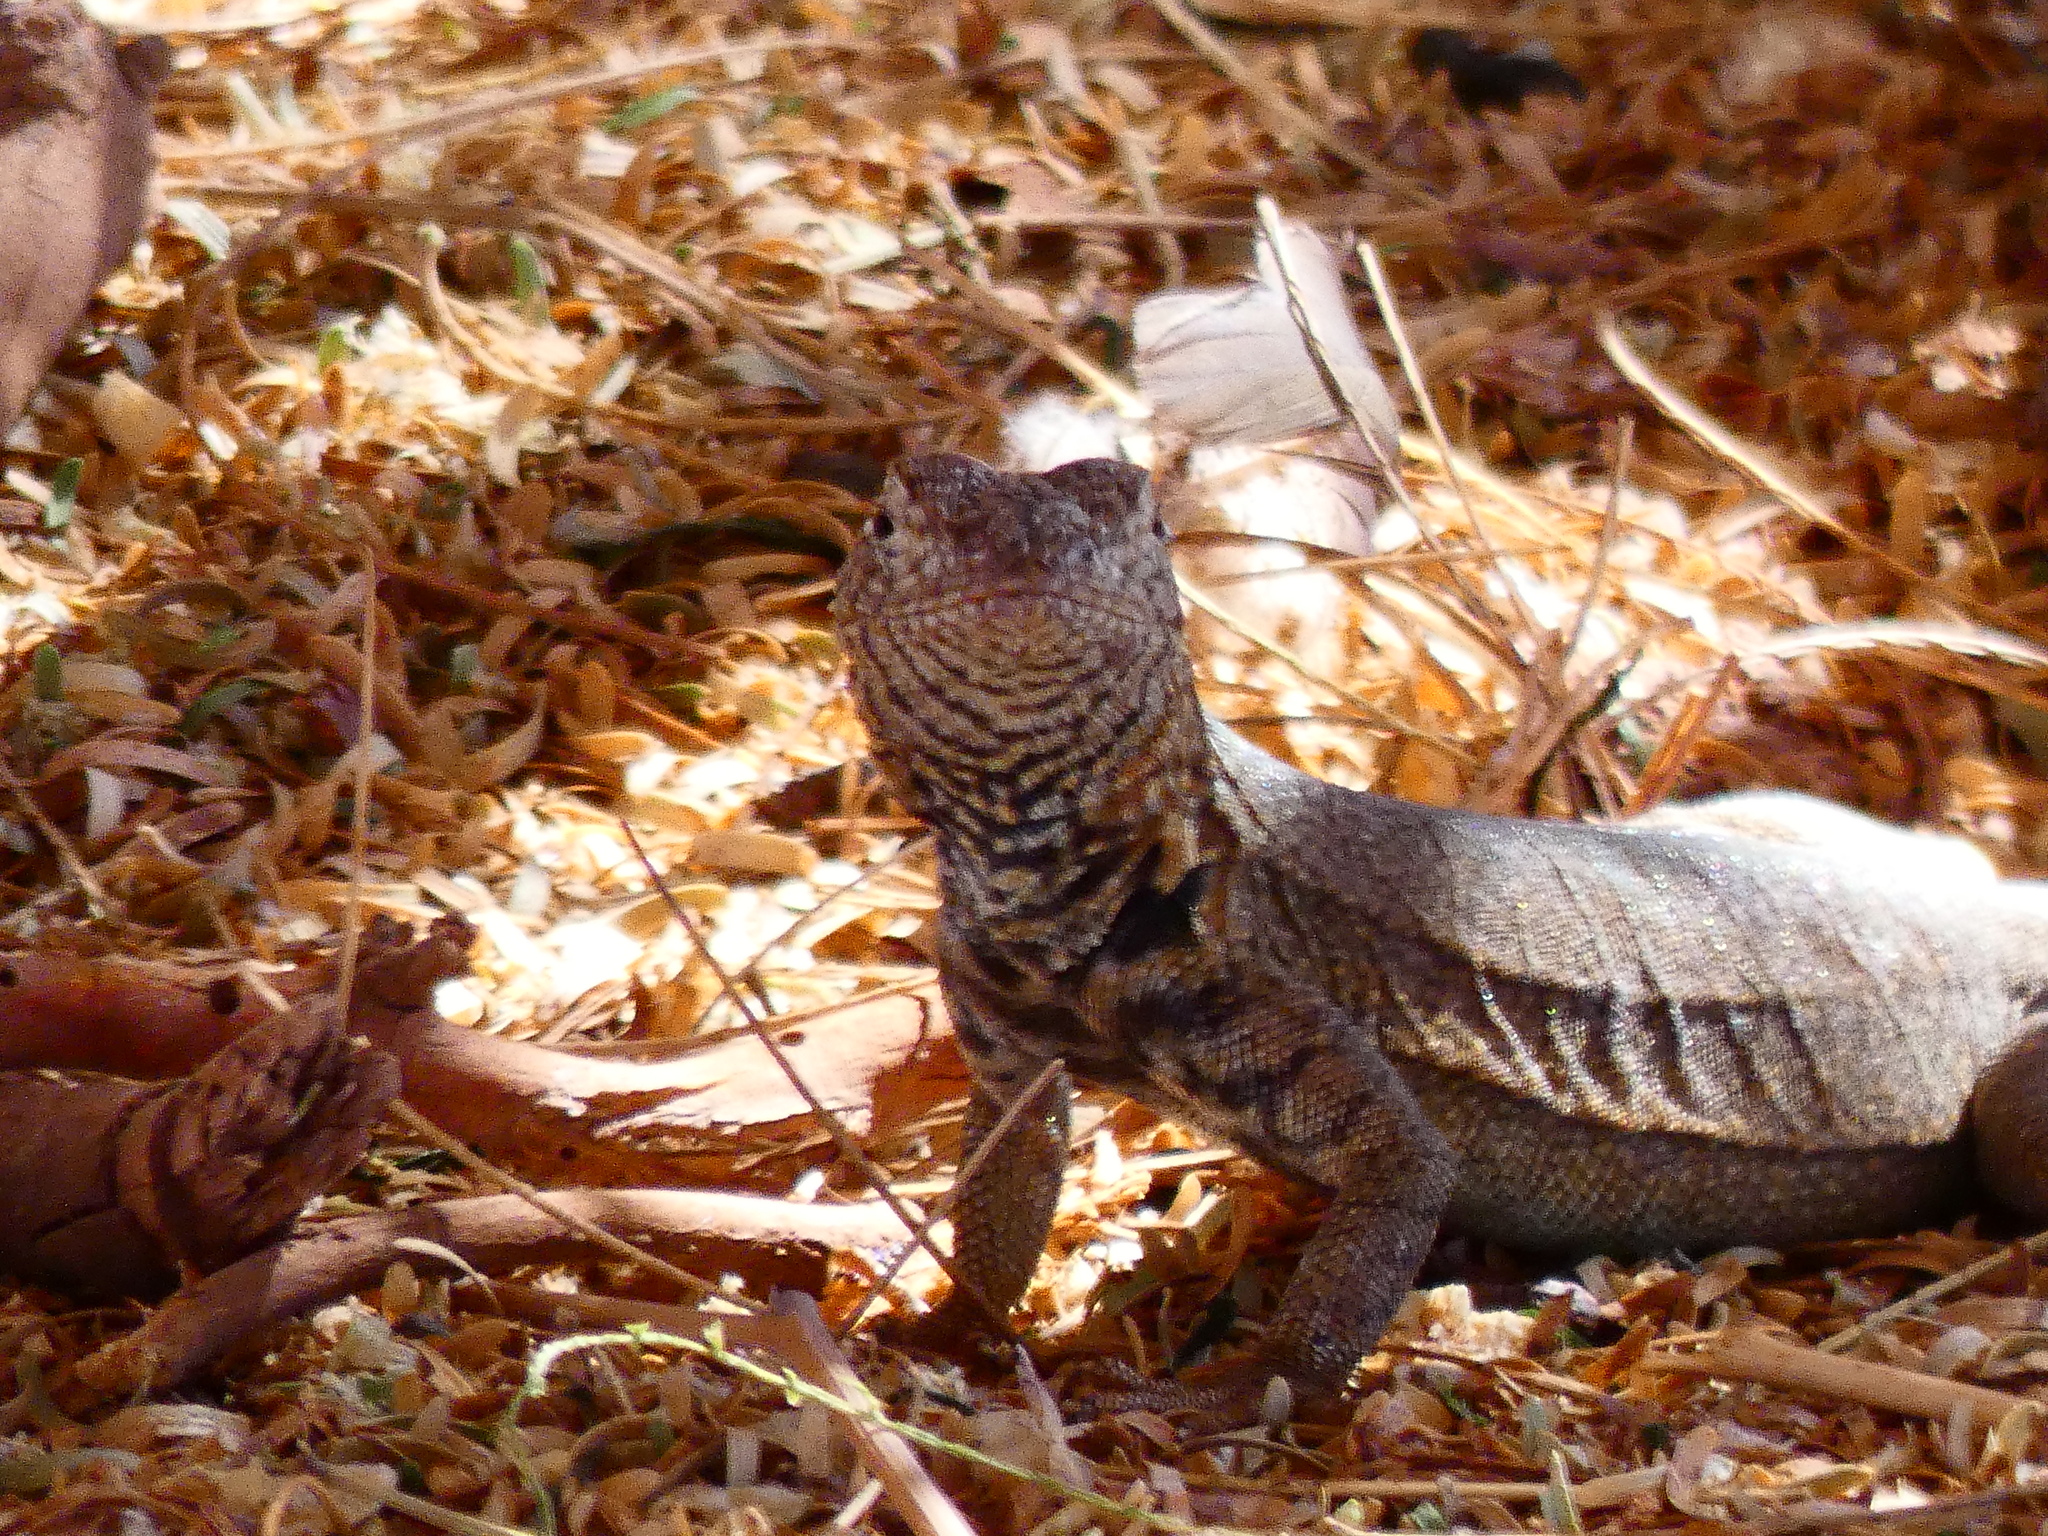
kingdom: Animalia
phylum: Chordata
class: Squamata
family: Tropiduridae
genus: Microlophus
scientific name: Microlophus theresioides
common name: Small pacific iguana
